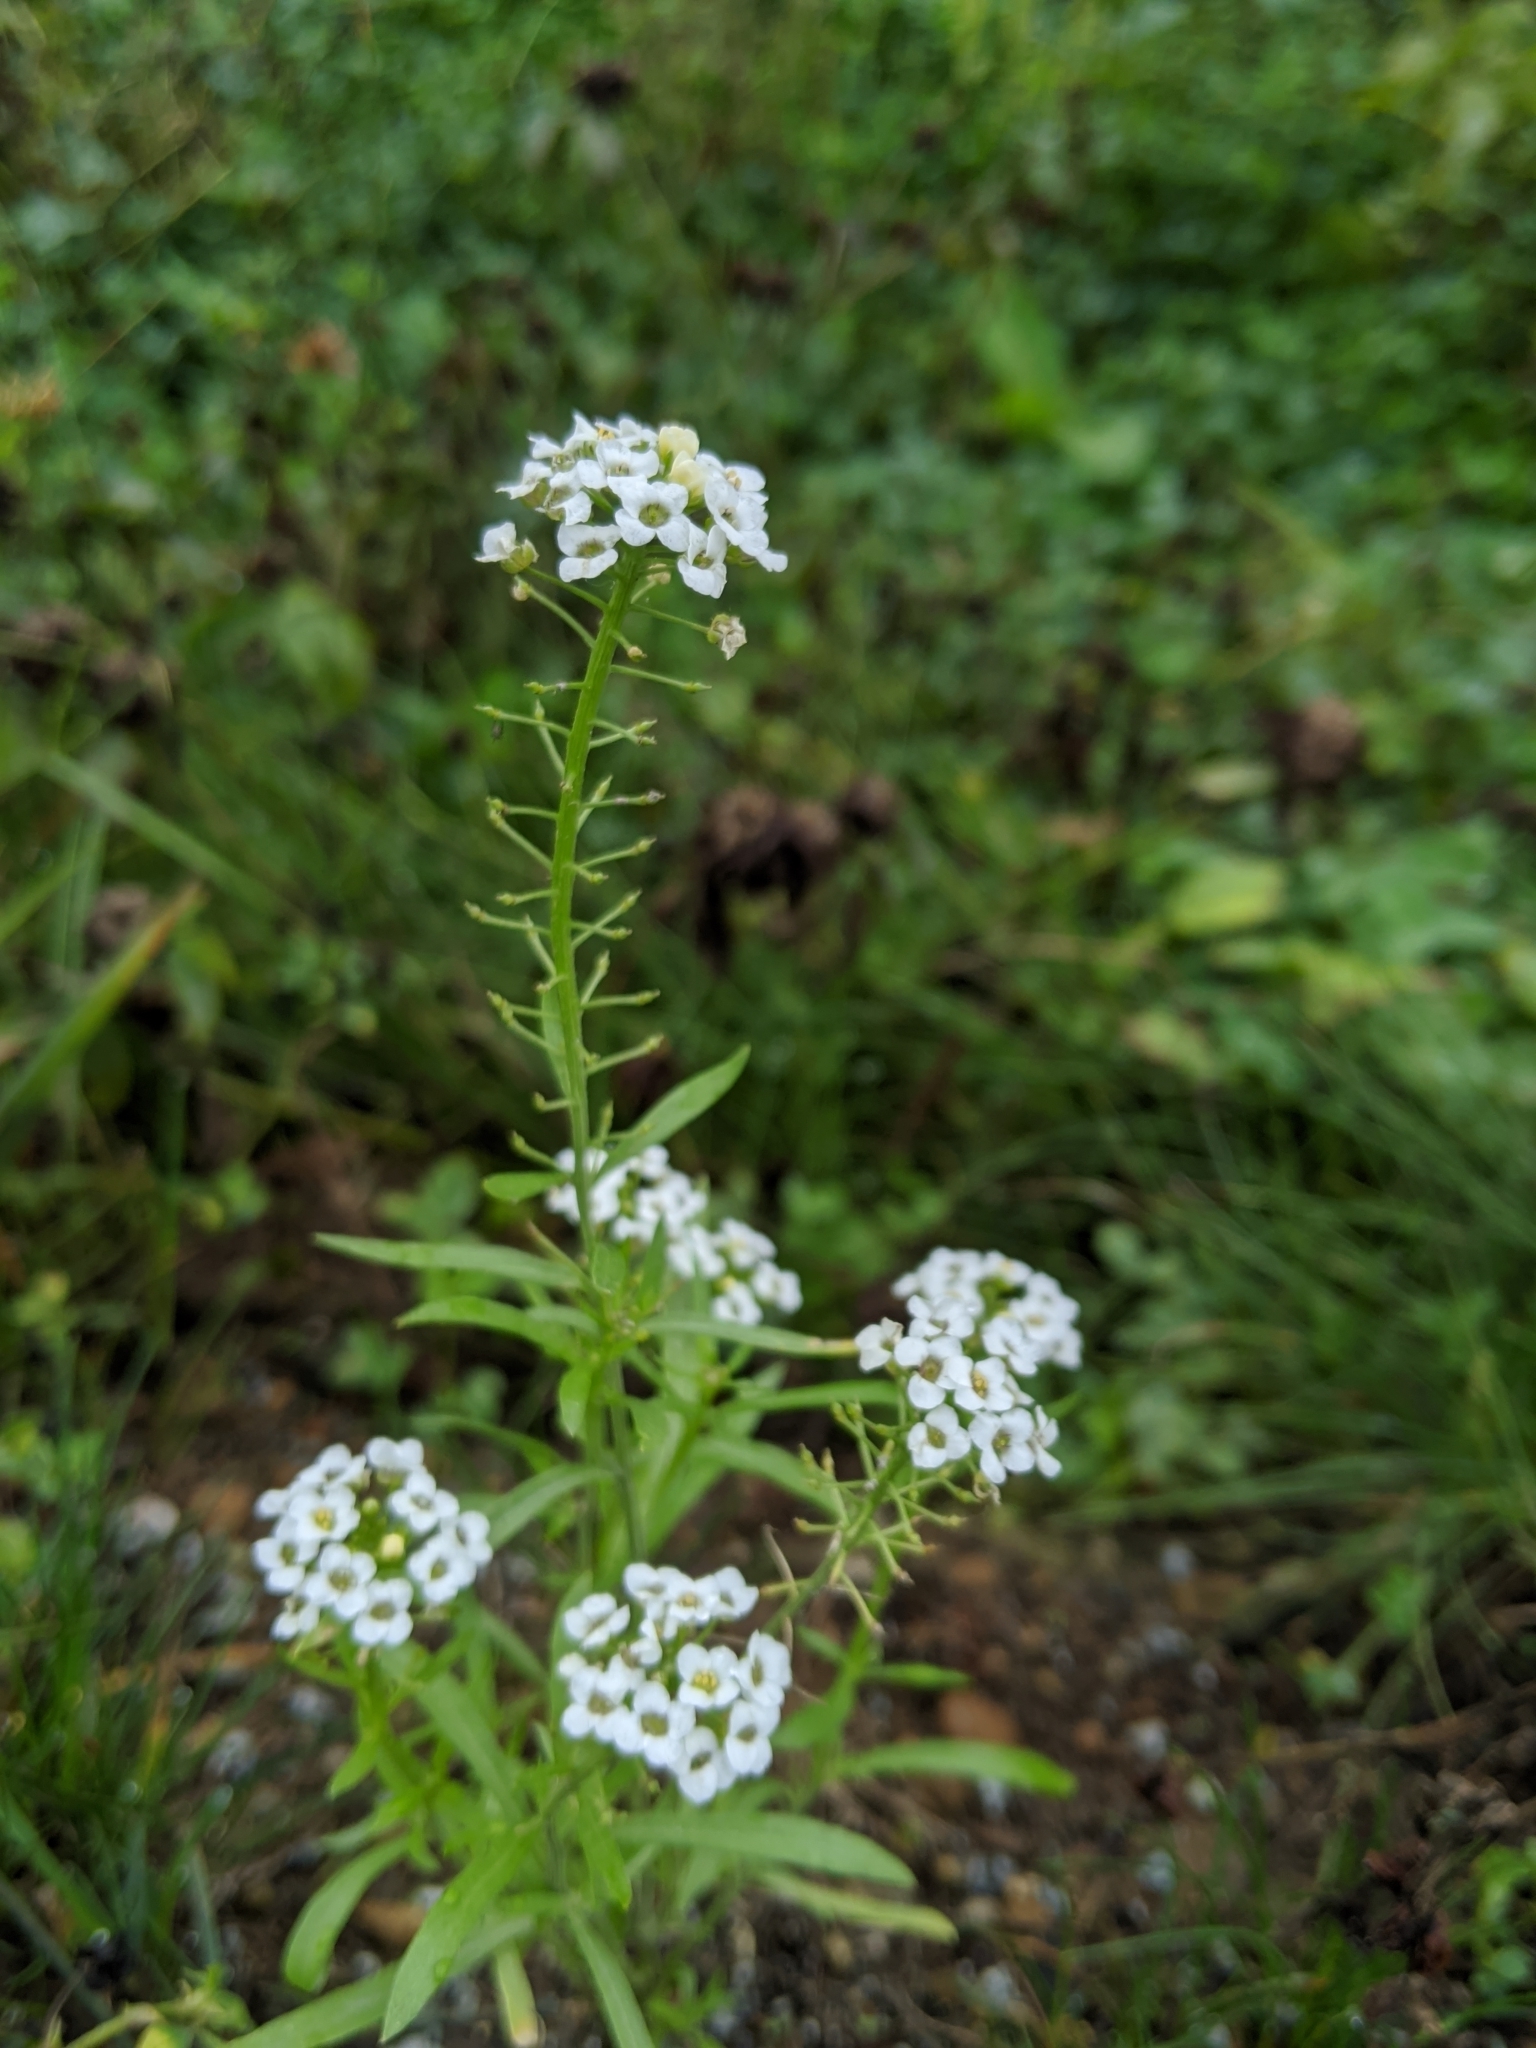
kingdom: Plantae
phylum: Tracheophyta
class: Magnoliopsida
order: Brassicales
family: Brassicaceae
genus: Lobularia
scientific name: Lobularia maritima
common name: Sweet alison
